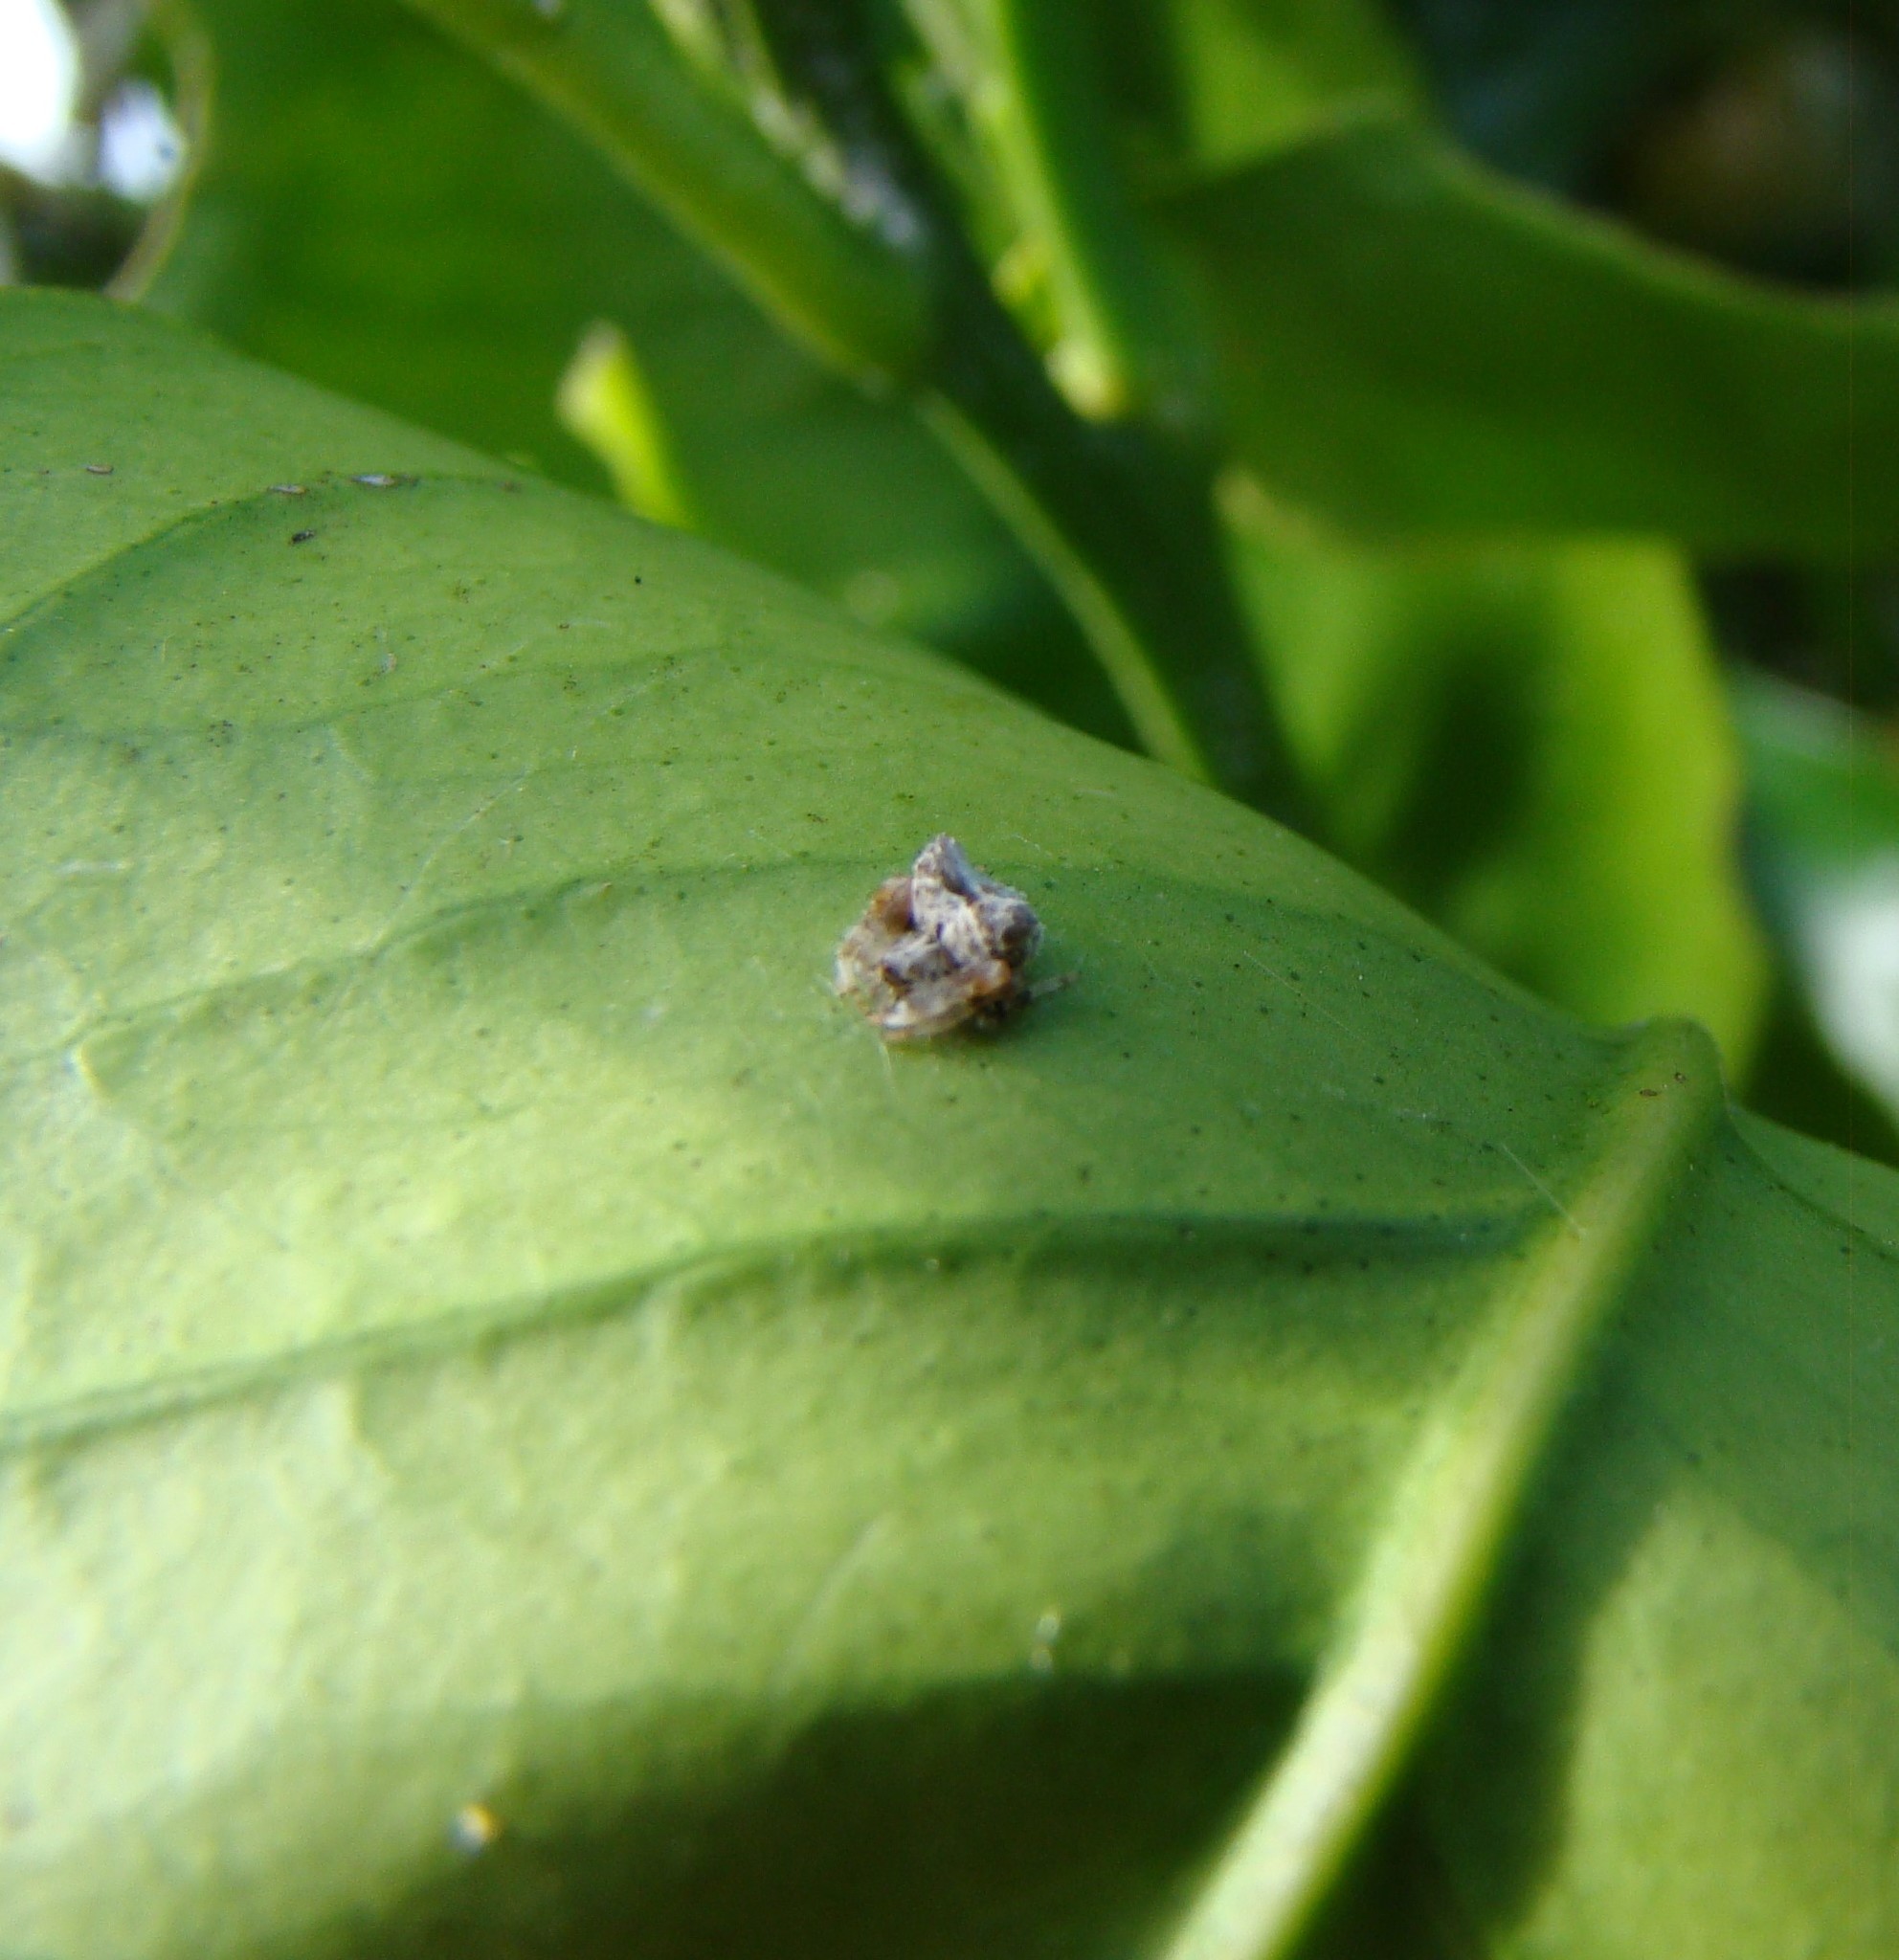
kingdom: Animalia
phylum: Arthropoda
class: Arachnida
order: Araneae
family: Araneidae
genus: Celaenia
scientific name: Celaenia olivacea
